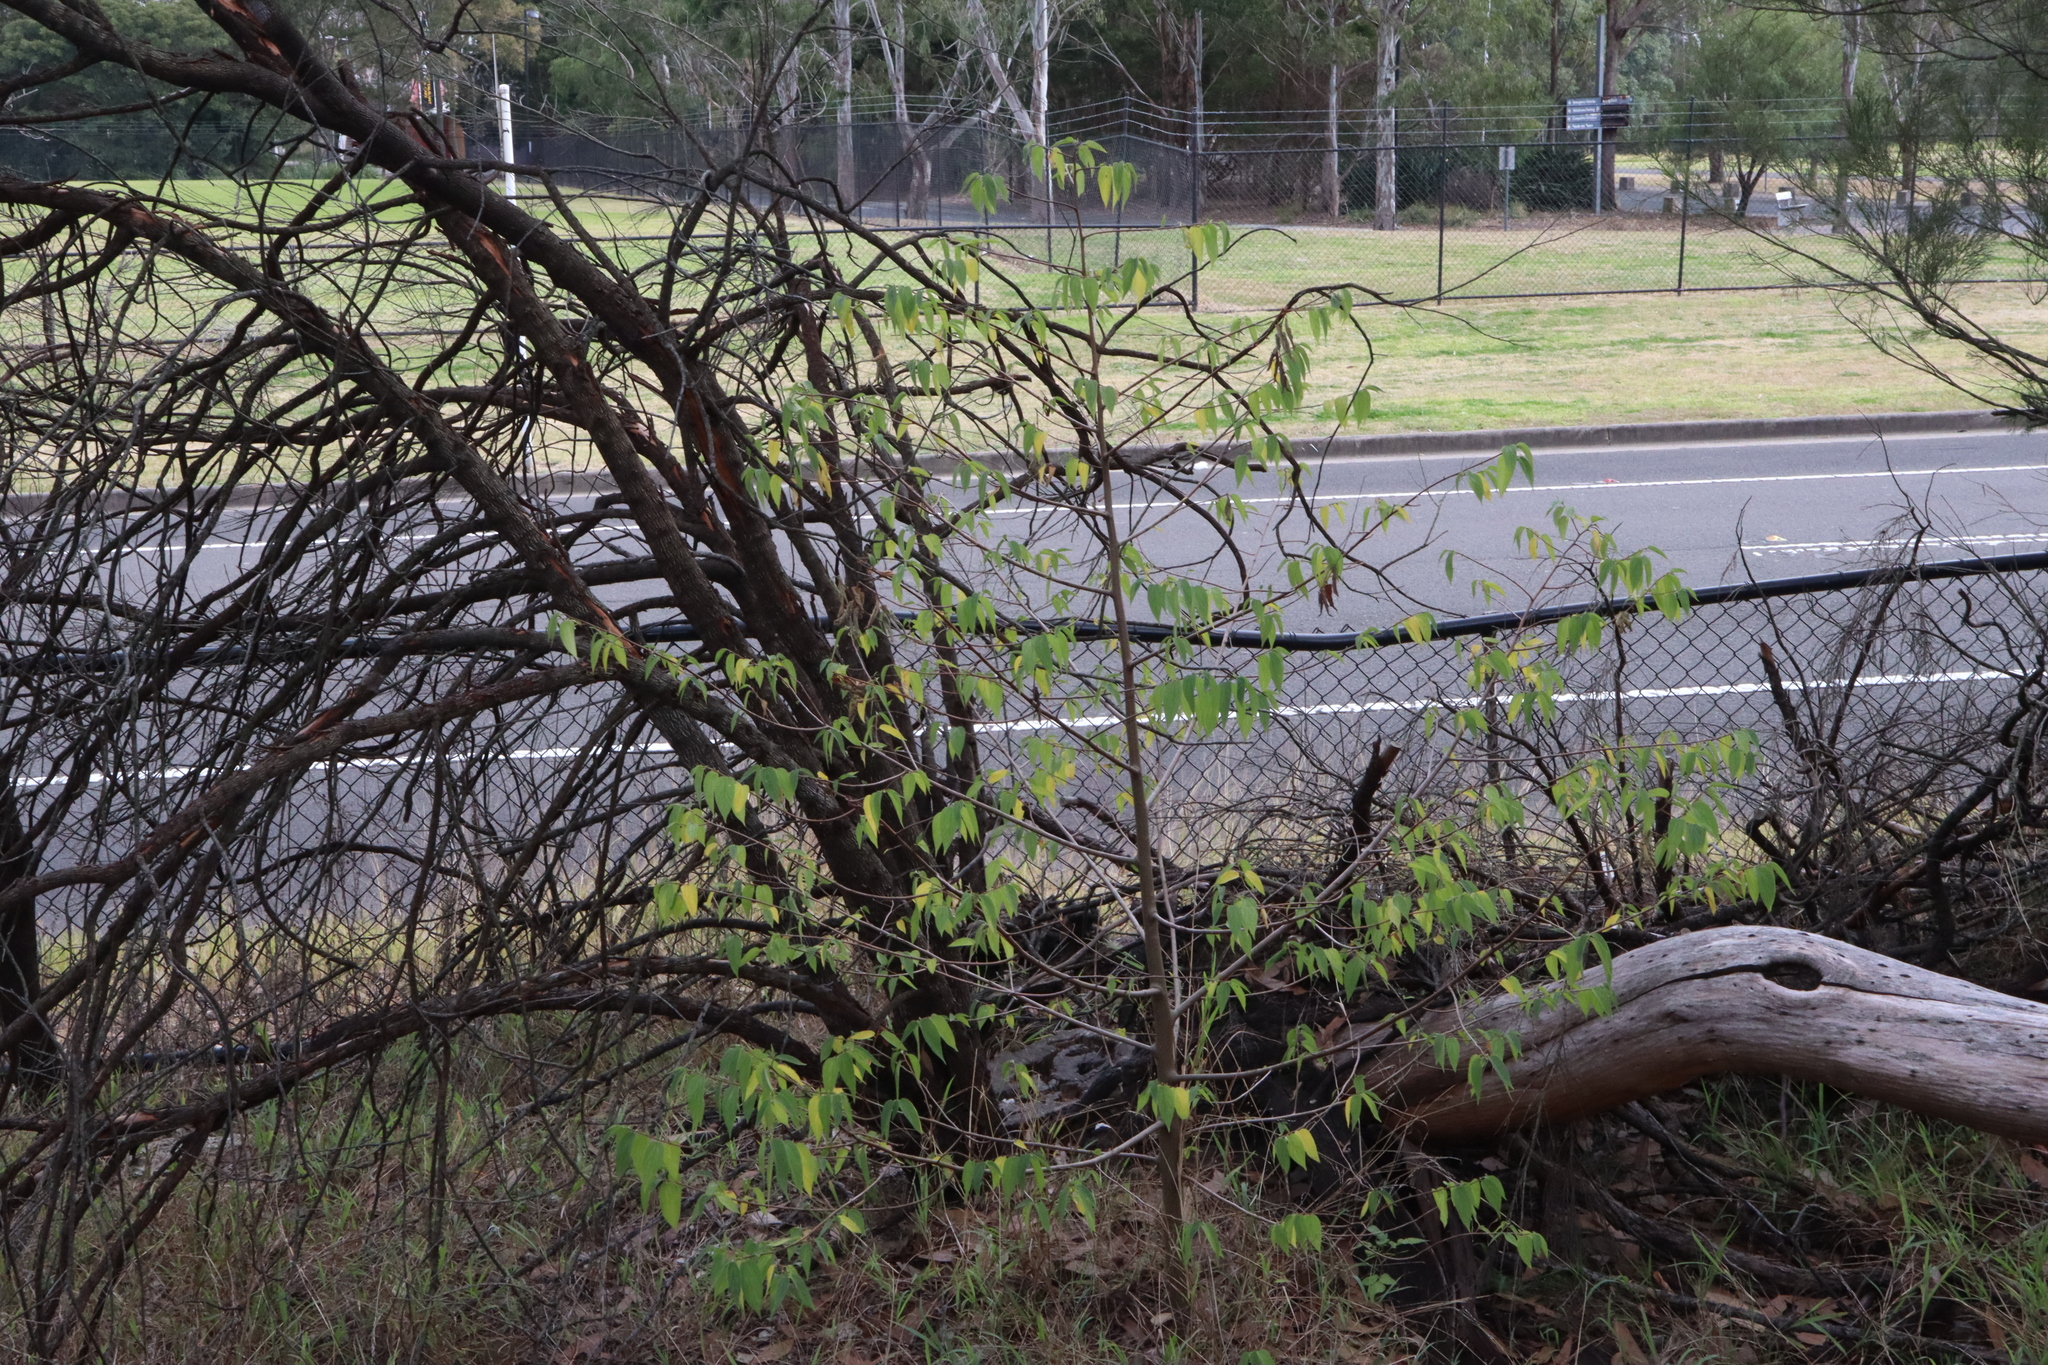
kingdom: Plantae
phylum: Tracheophyta
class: Magnoliopsida
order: Rosales
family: Cannabaceae
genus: Trema
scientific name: Trema tomentosum
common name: Peach-leaf-poisonbush
